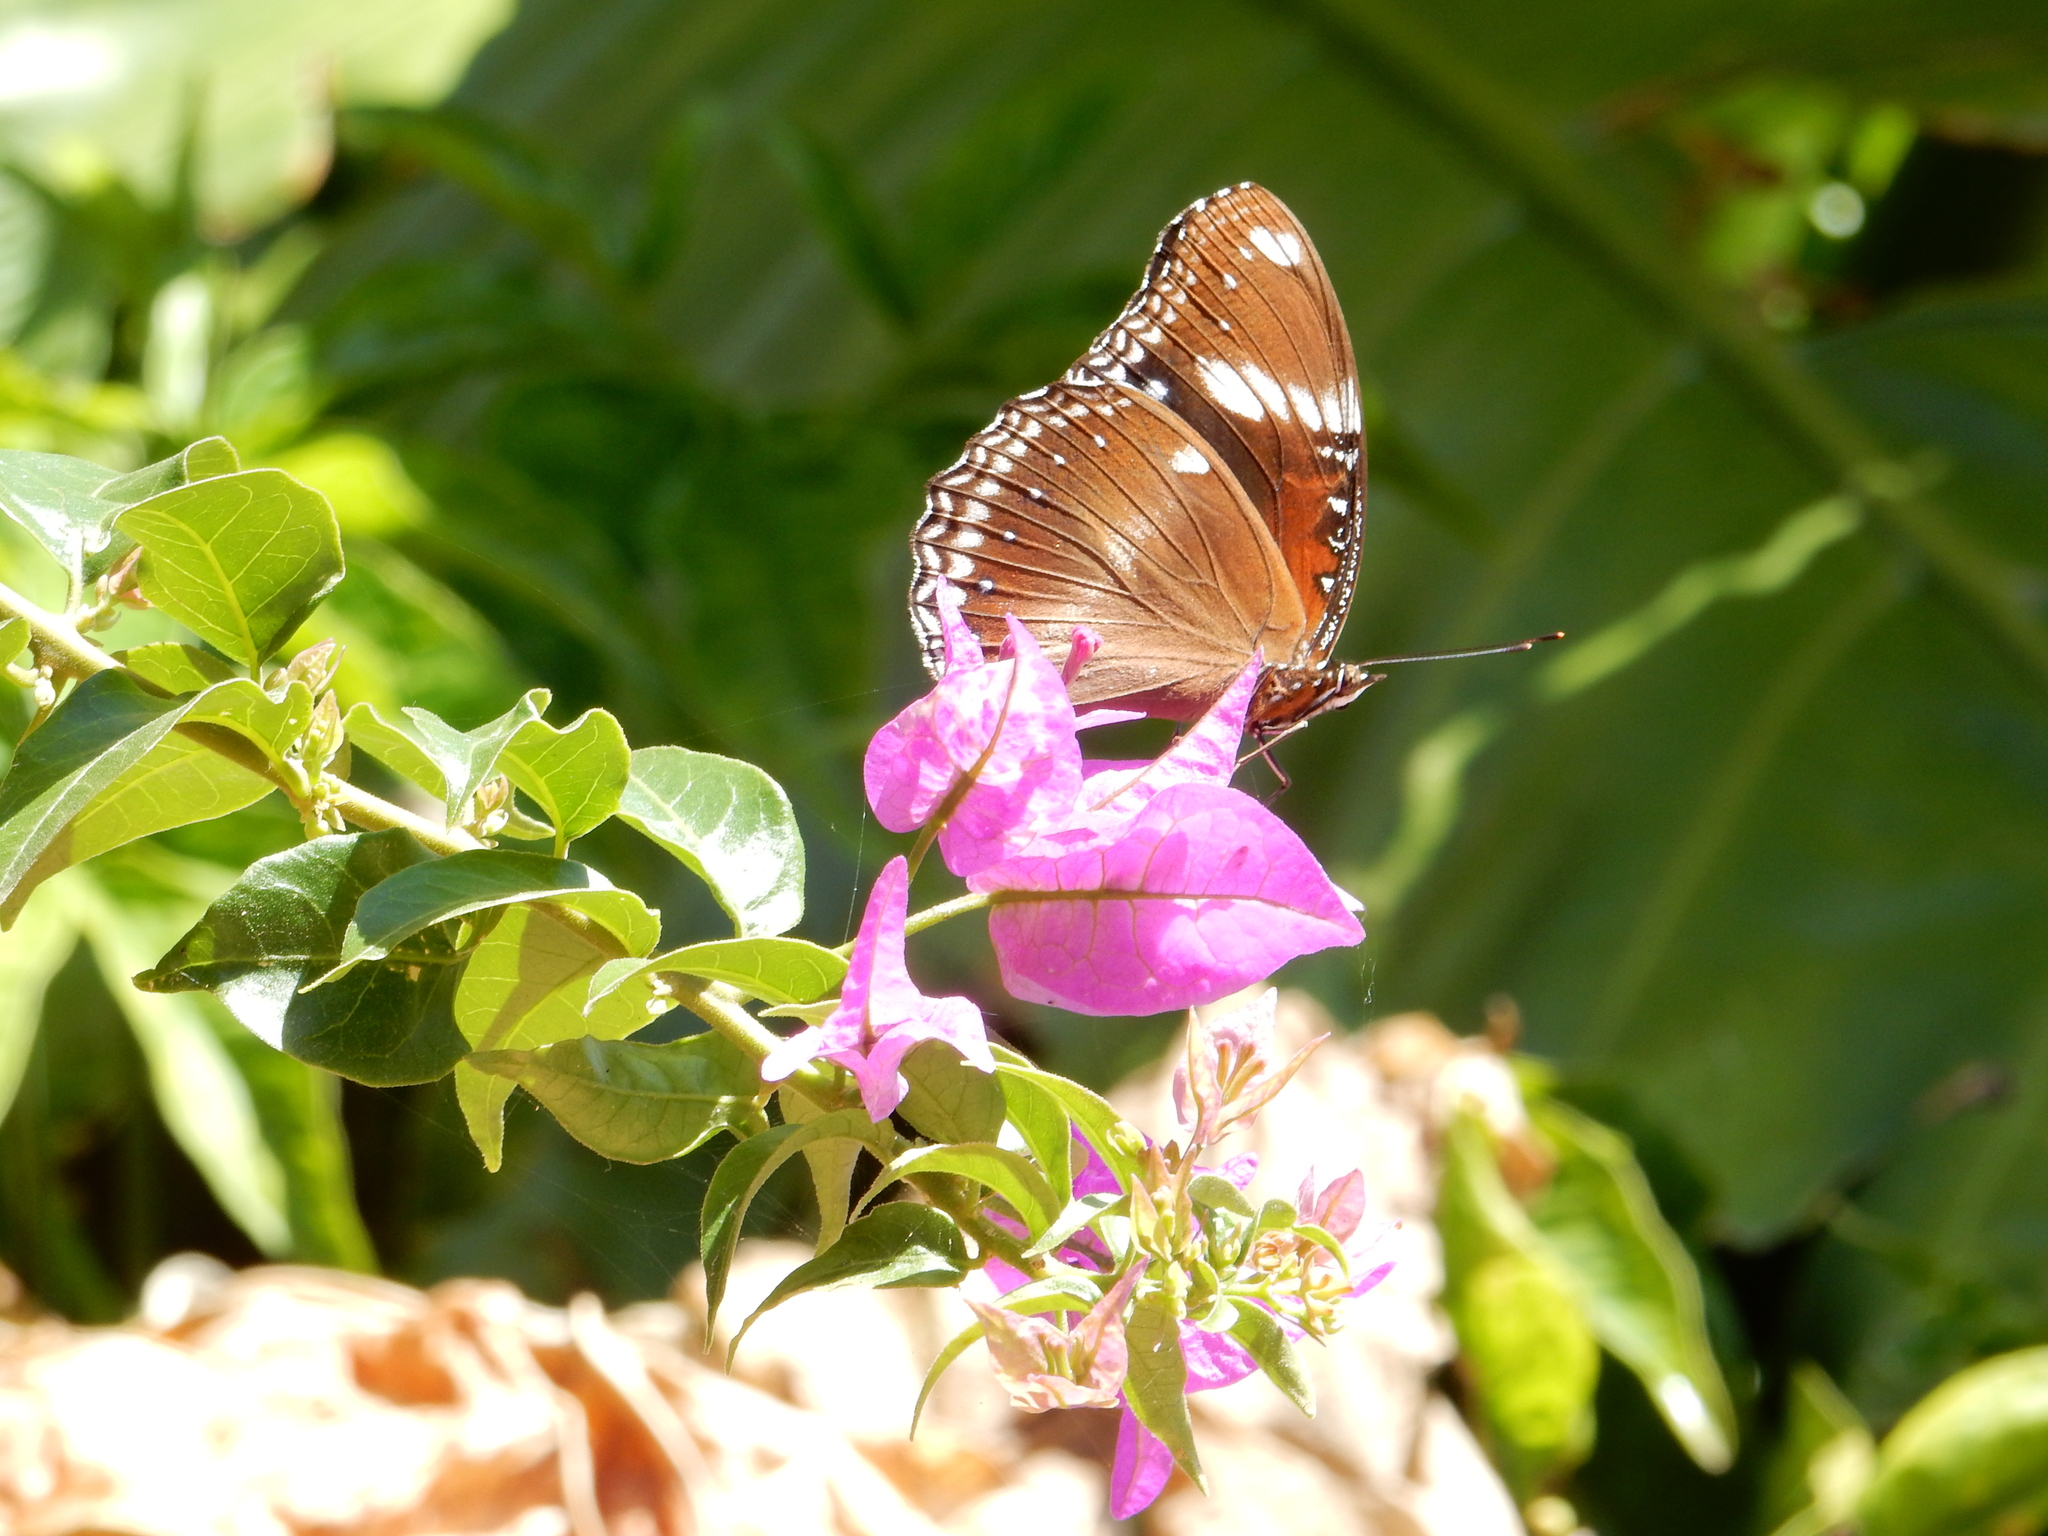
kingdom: Animalia
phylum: Arthropoda
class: Insecta
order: Lepidoptera
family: Nymphalidae
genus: Hypolimnas
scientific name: Hypolimnas bolina
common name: Great eggfly
